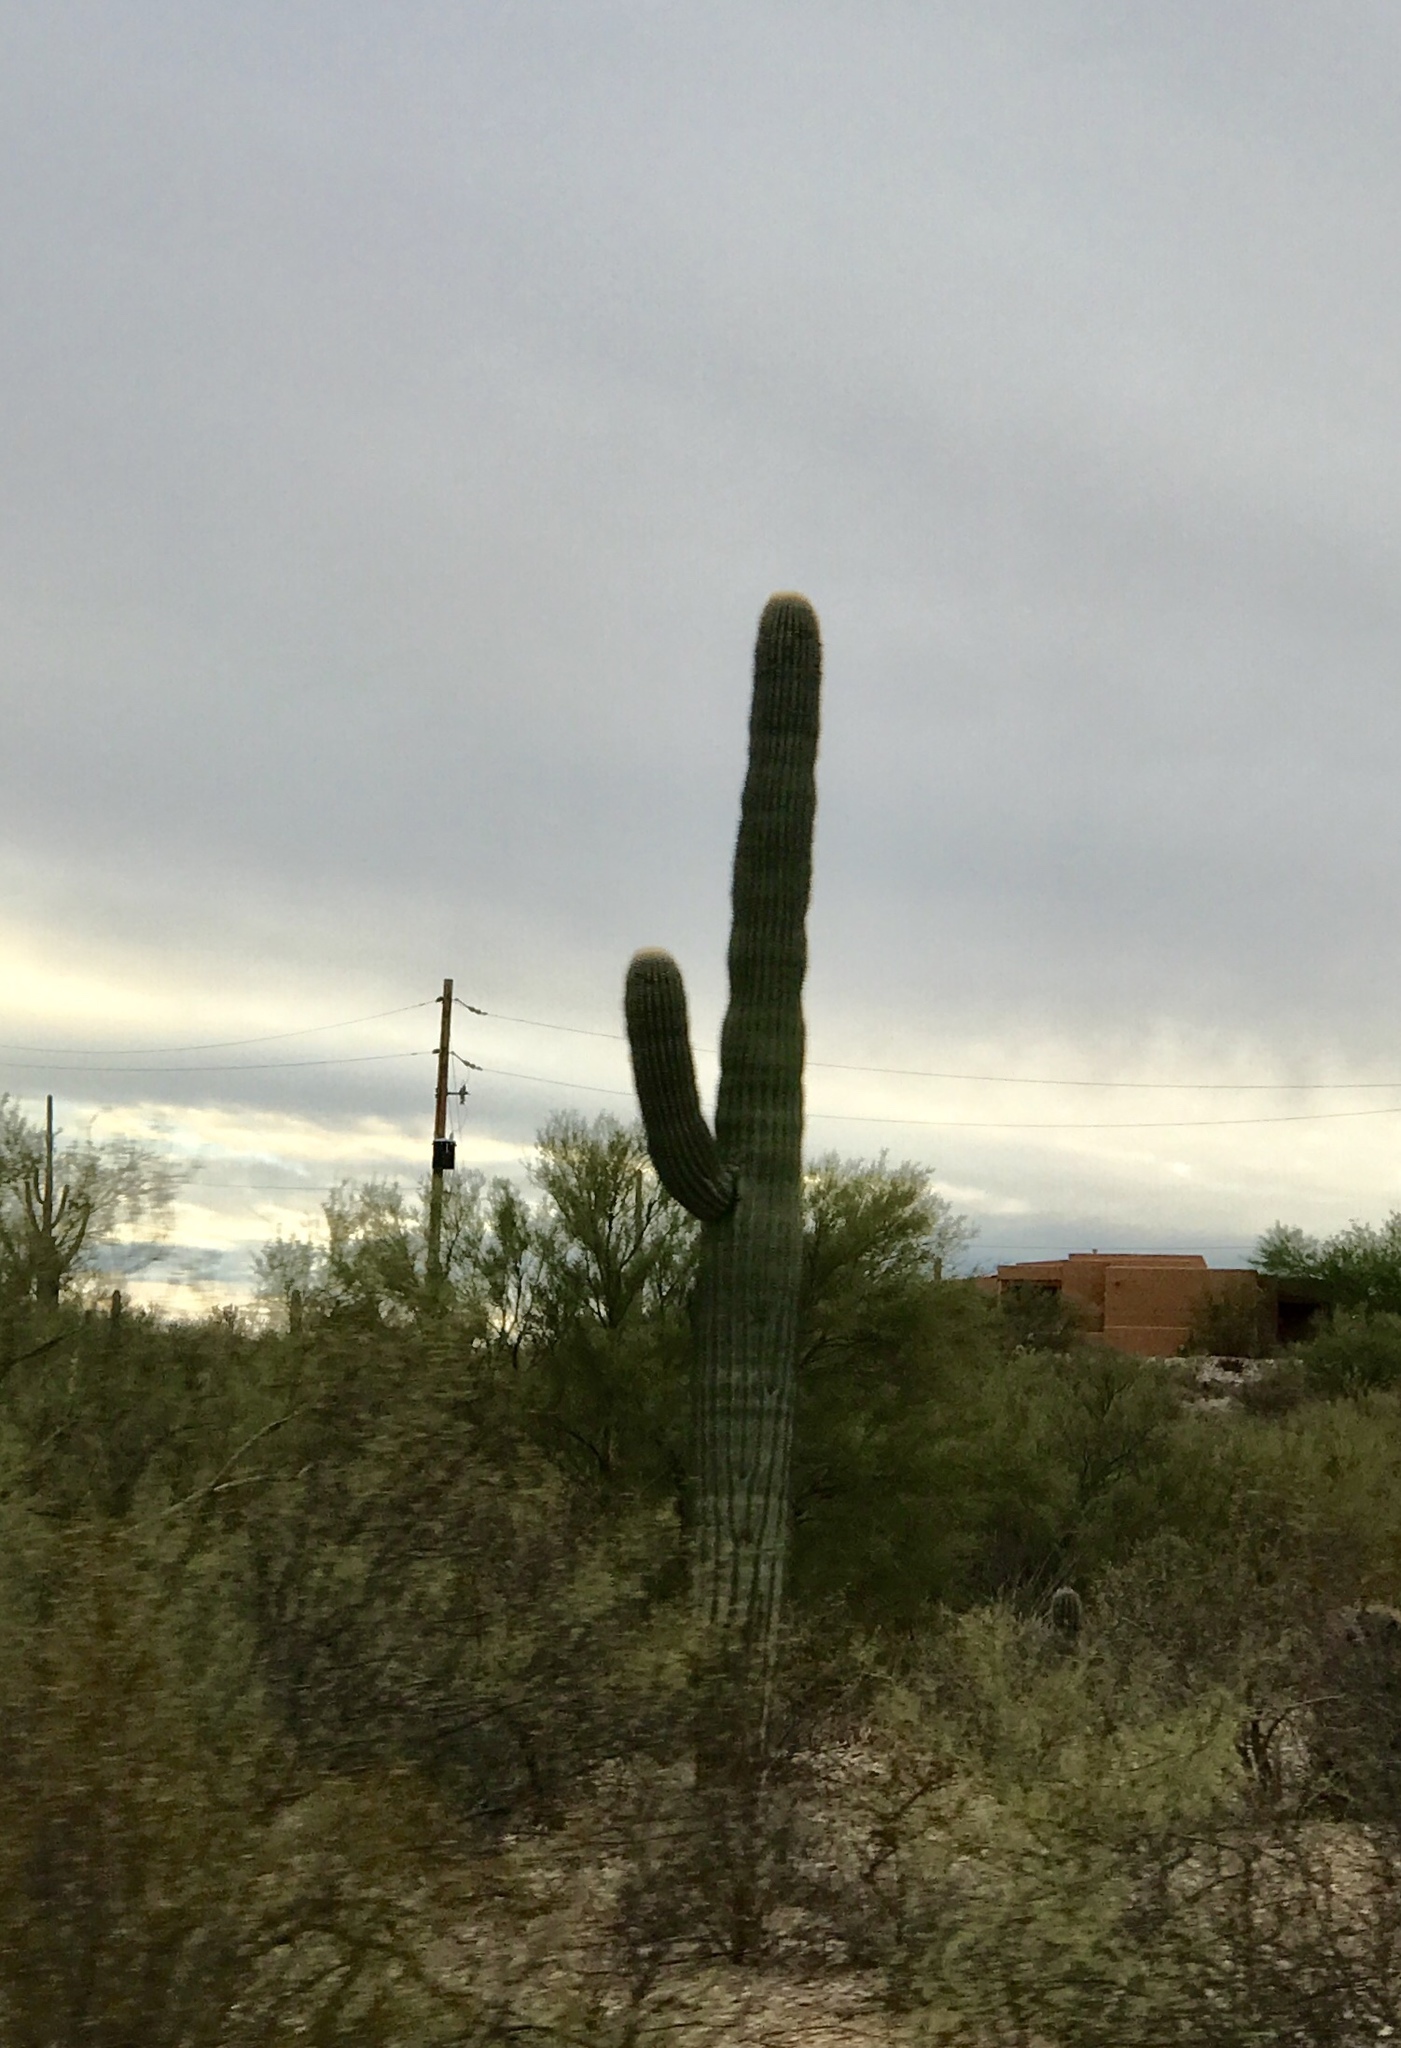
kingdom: Plantae
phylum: Tracheophyta
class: Magnoliopsida
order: Caryophyllales
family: Cactaceae
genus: Carnegiea
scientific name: Carnegiea gigantea
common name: Saguaro
